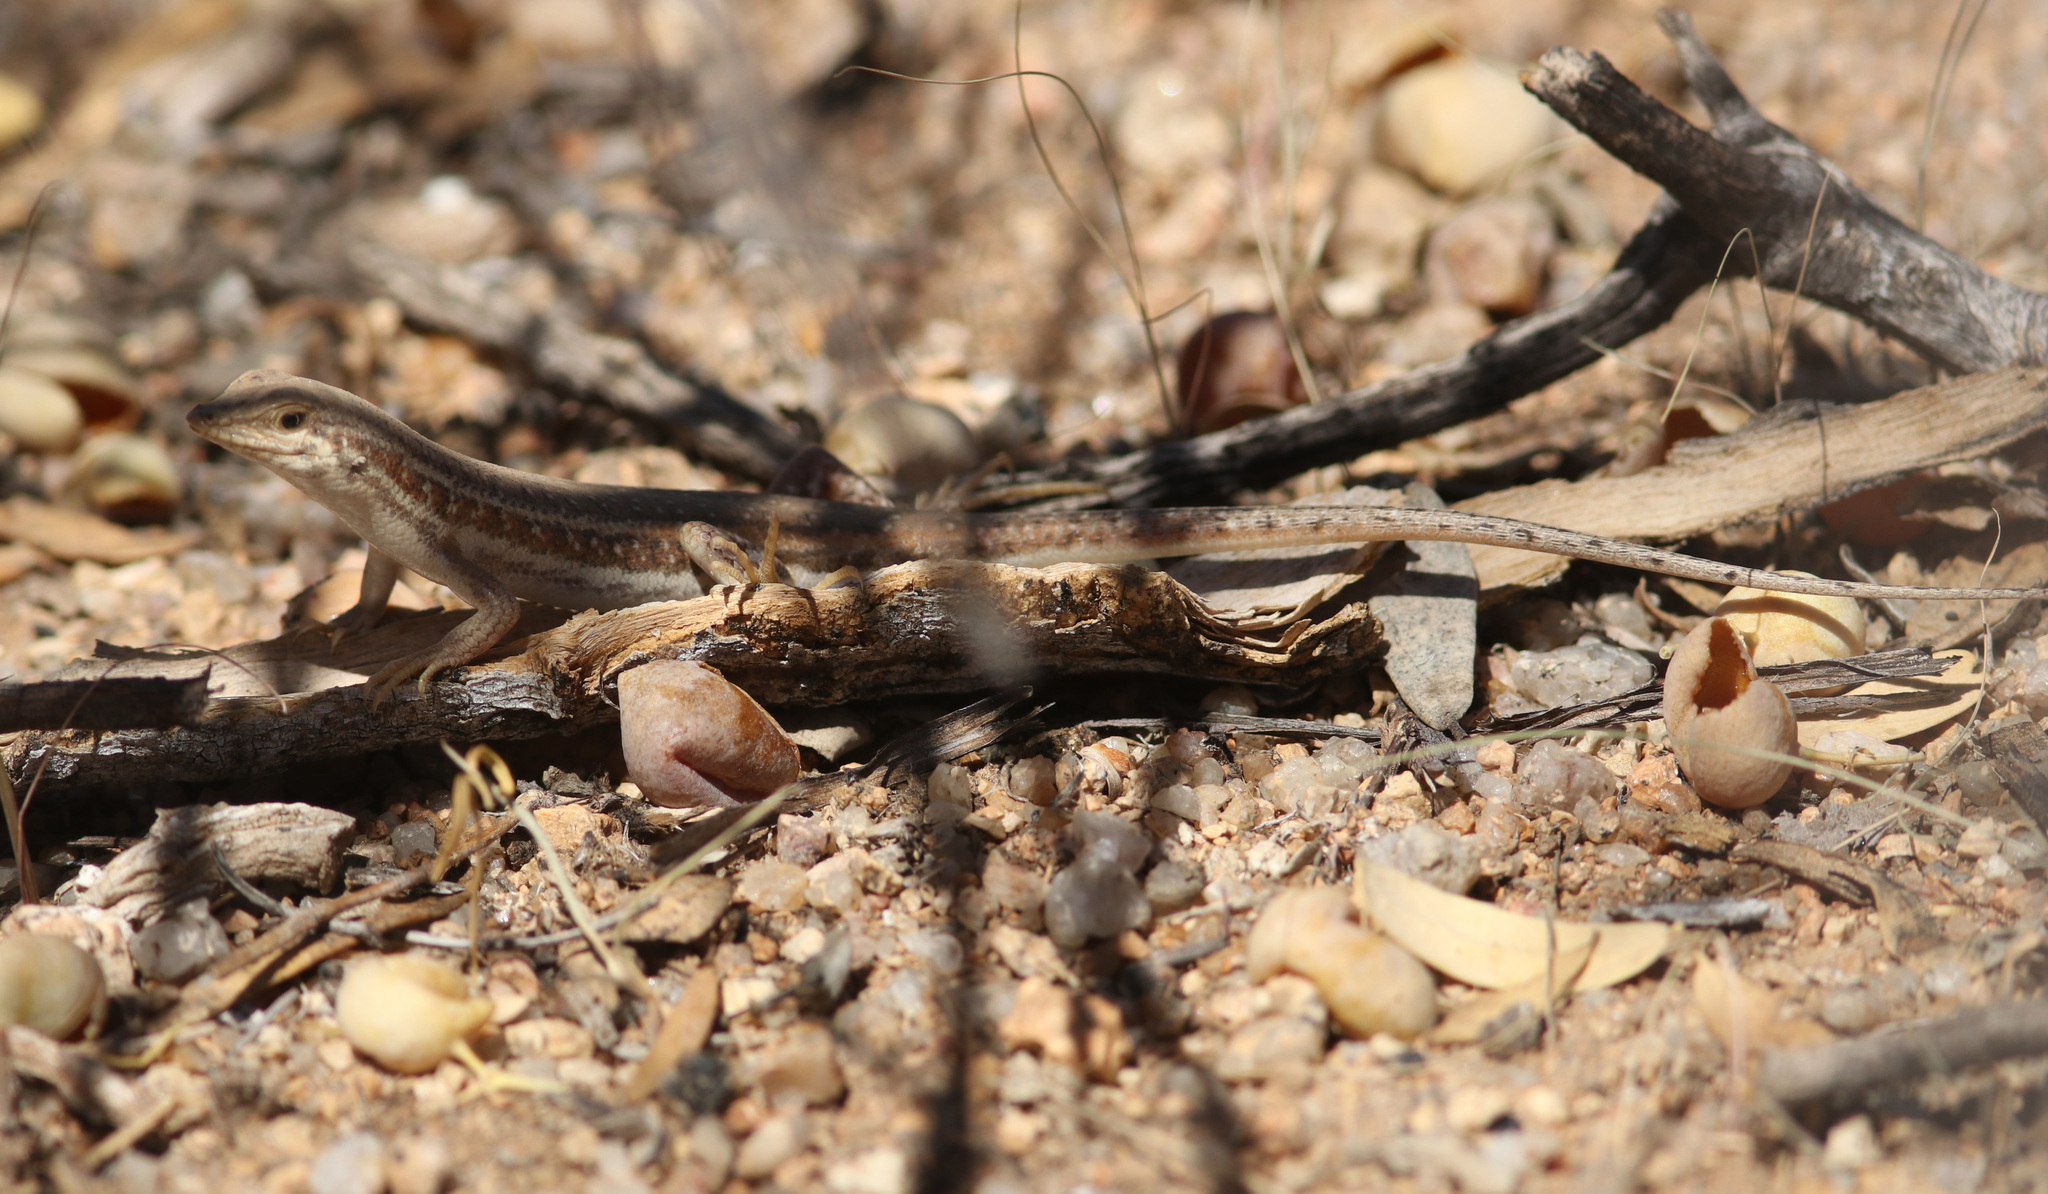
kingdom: Animalia
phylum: Chordata
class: Squamata
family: Scincidae
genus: Trachylepis
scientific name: Trachylepis acutilabris
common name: Sharp-lipped mabuya
